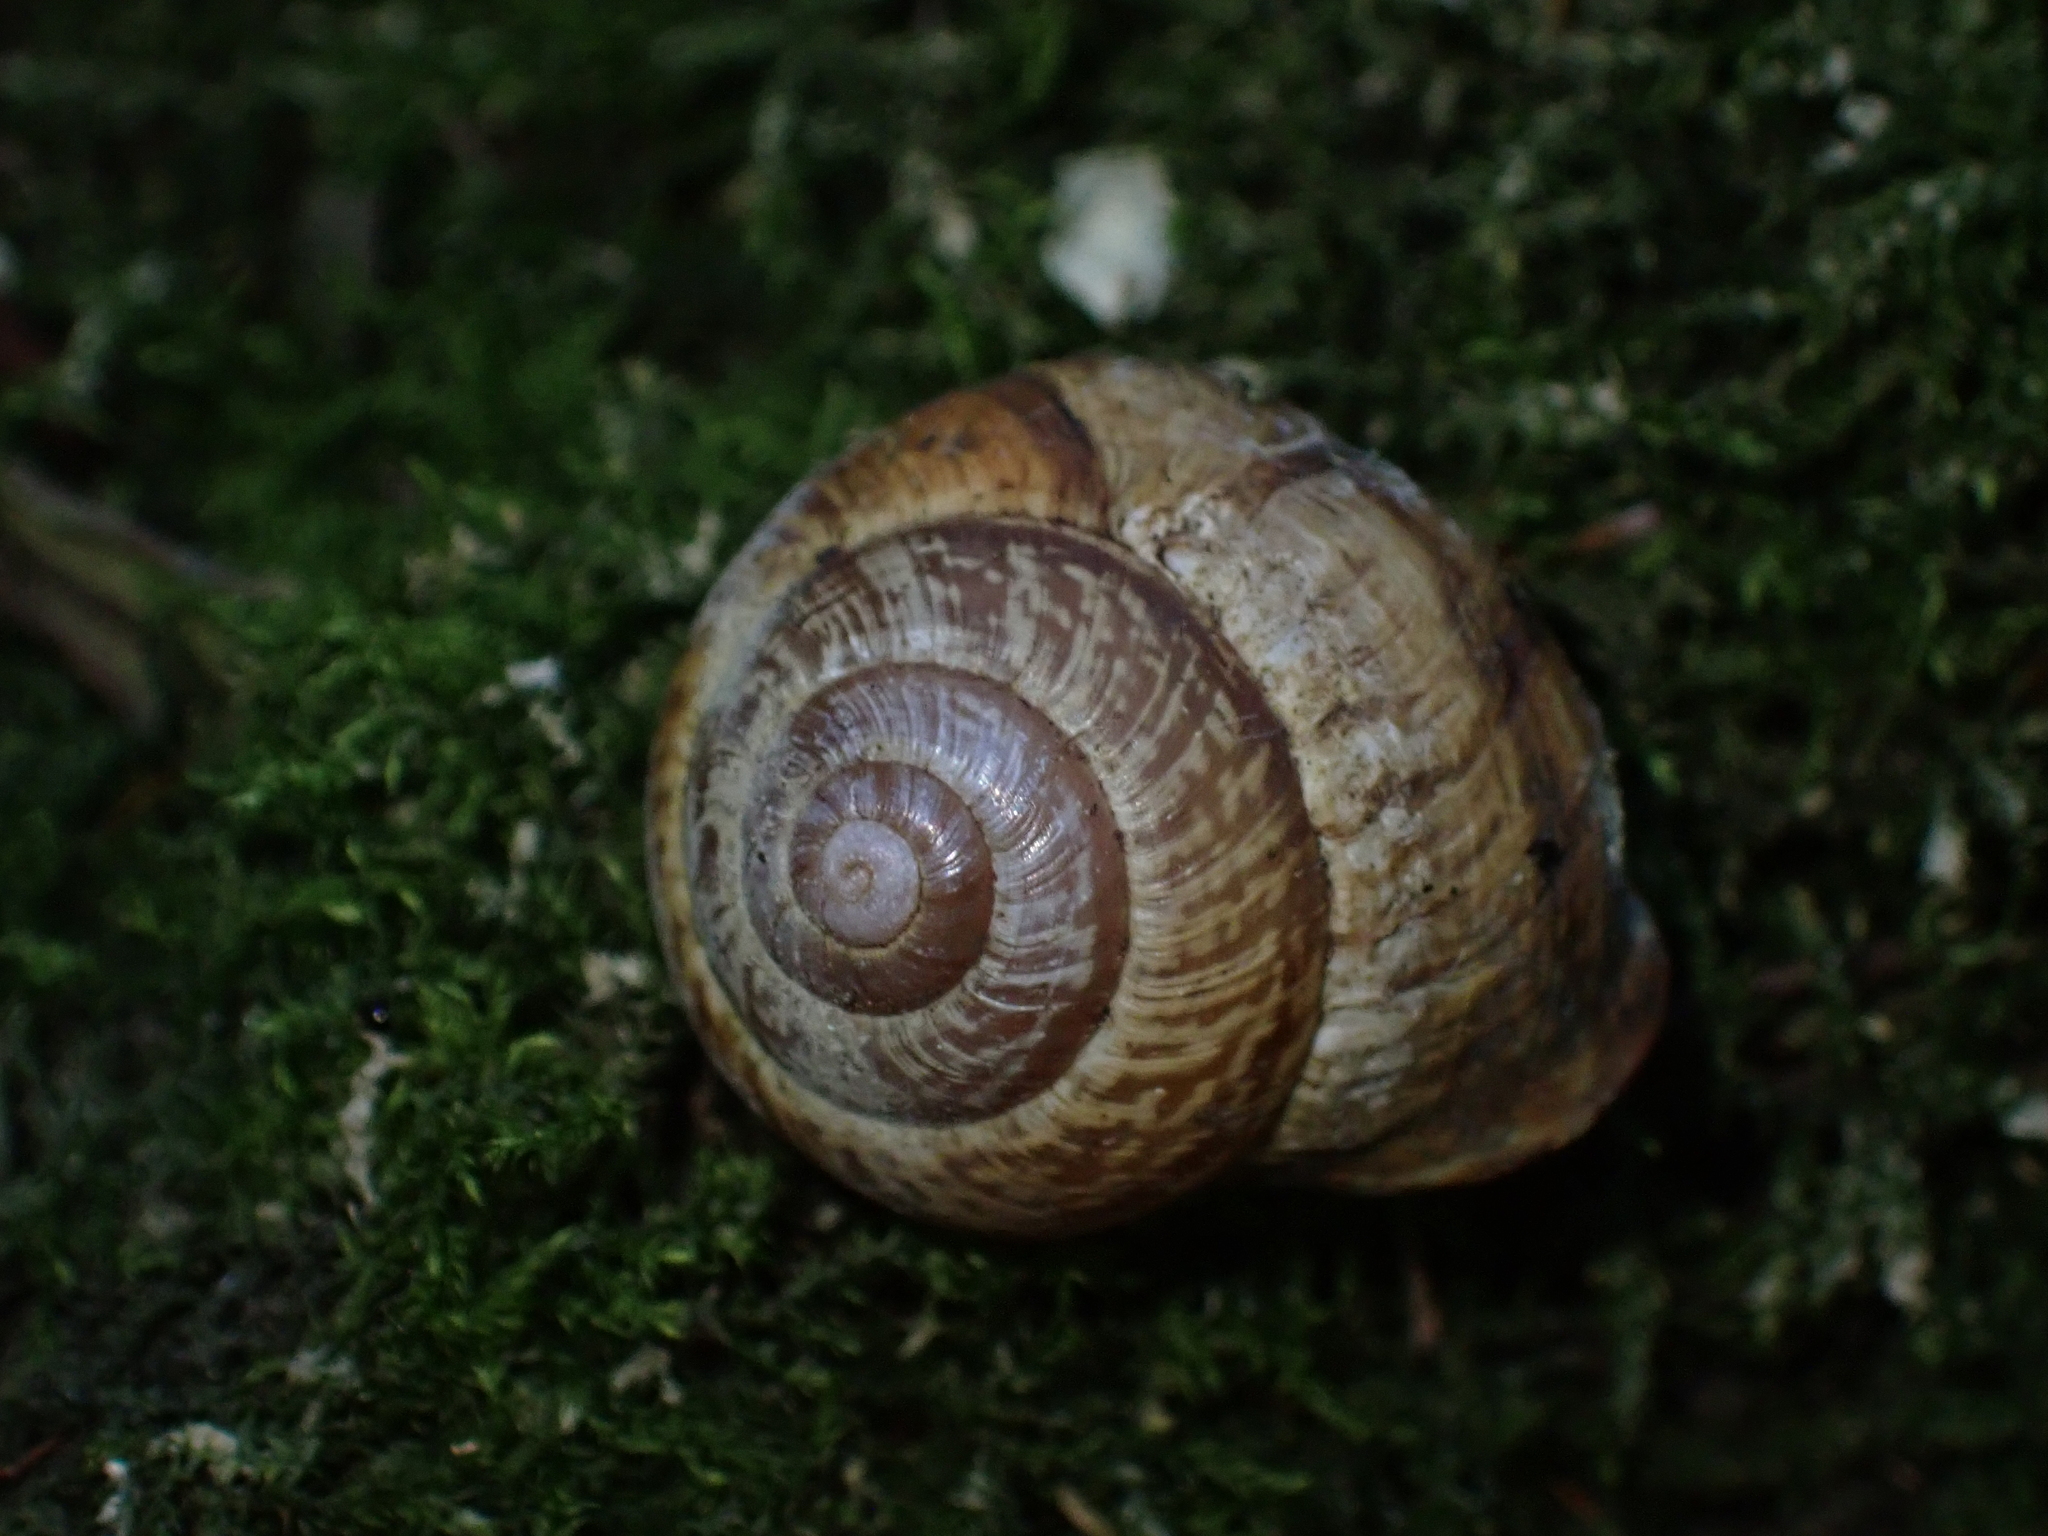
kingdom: Animalia
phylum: Mollusca
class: Gastropoda
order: Stylommatophora
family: Helicidae
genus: Arianta
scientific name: Arianta arbustorum
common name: Copse snail
